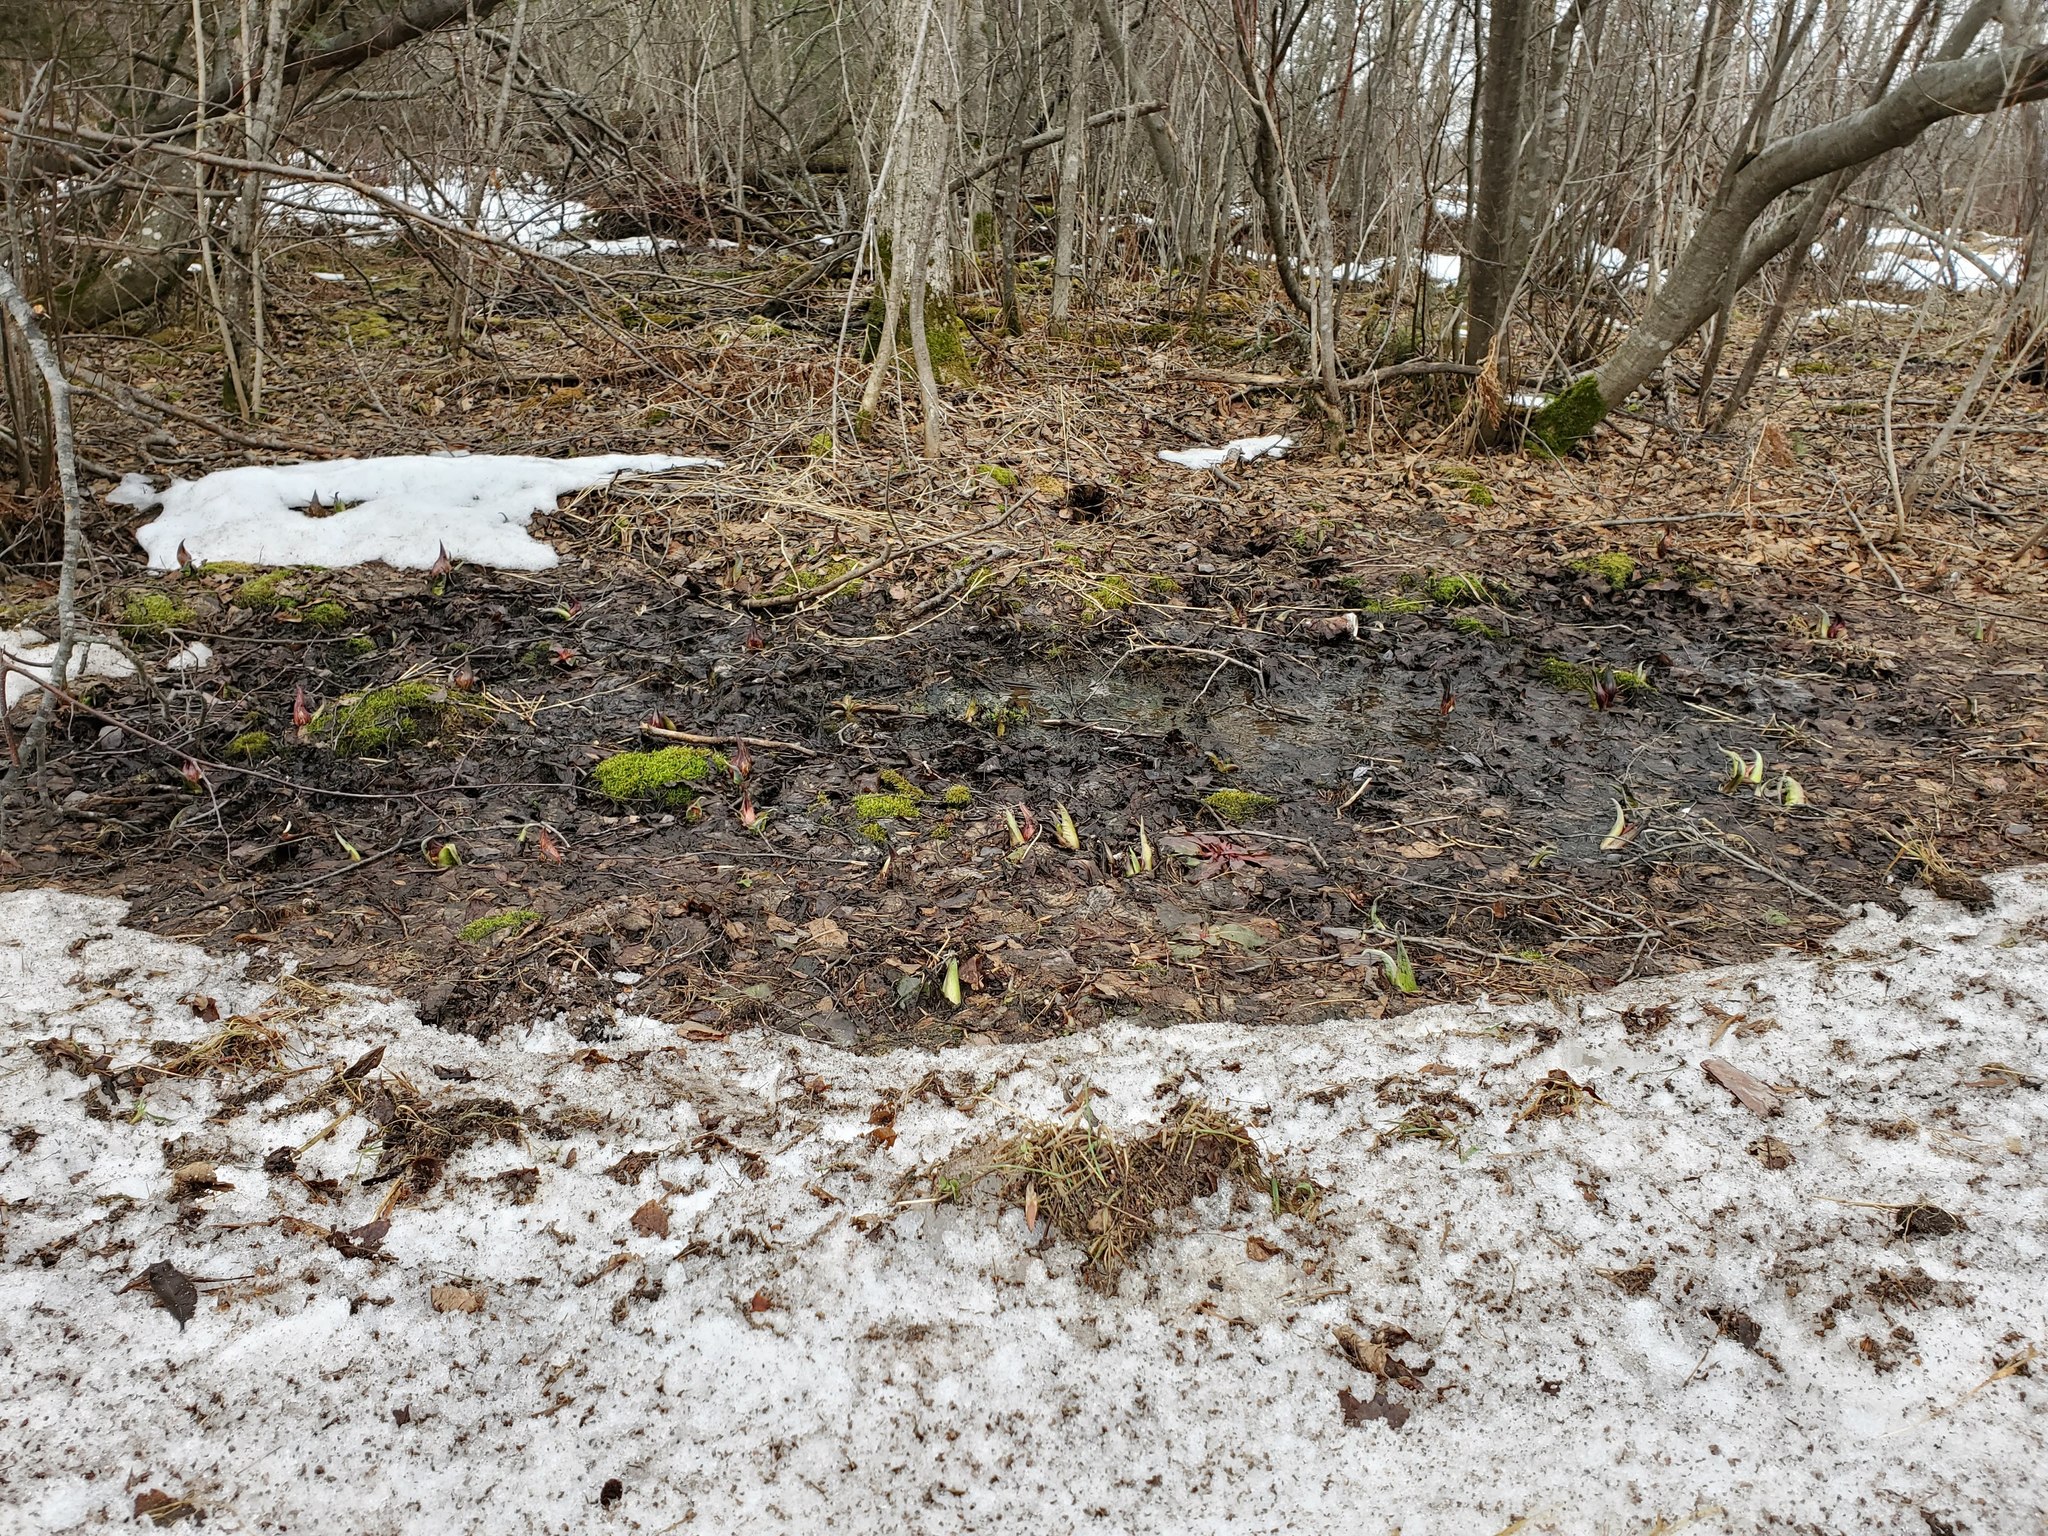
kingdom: Plantae
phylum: Tracheophyta
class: Liliopsida
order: Alismatales
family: Araceae
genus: Symplocarpus
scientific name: Symplocarpus foetidus
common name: Eastern skunk cabbage
